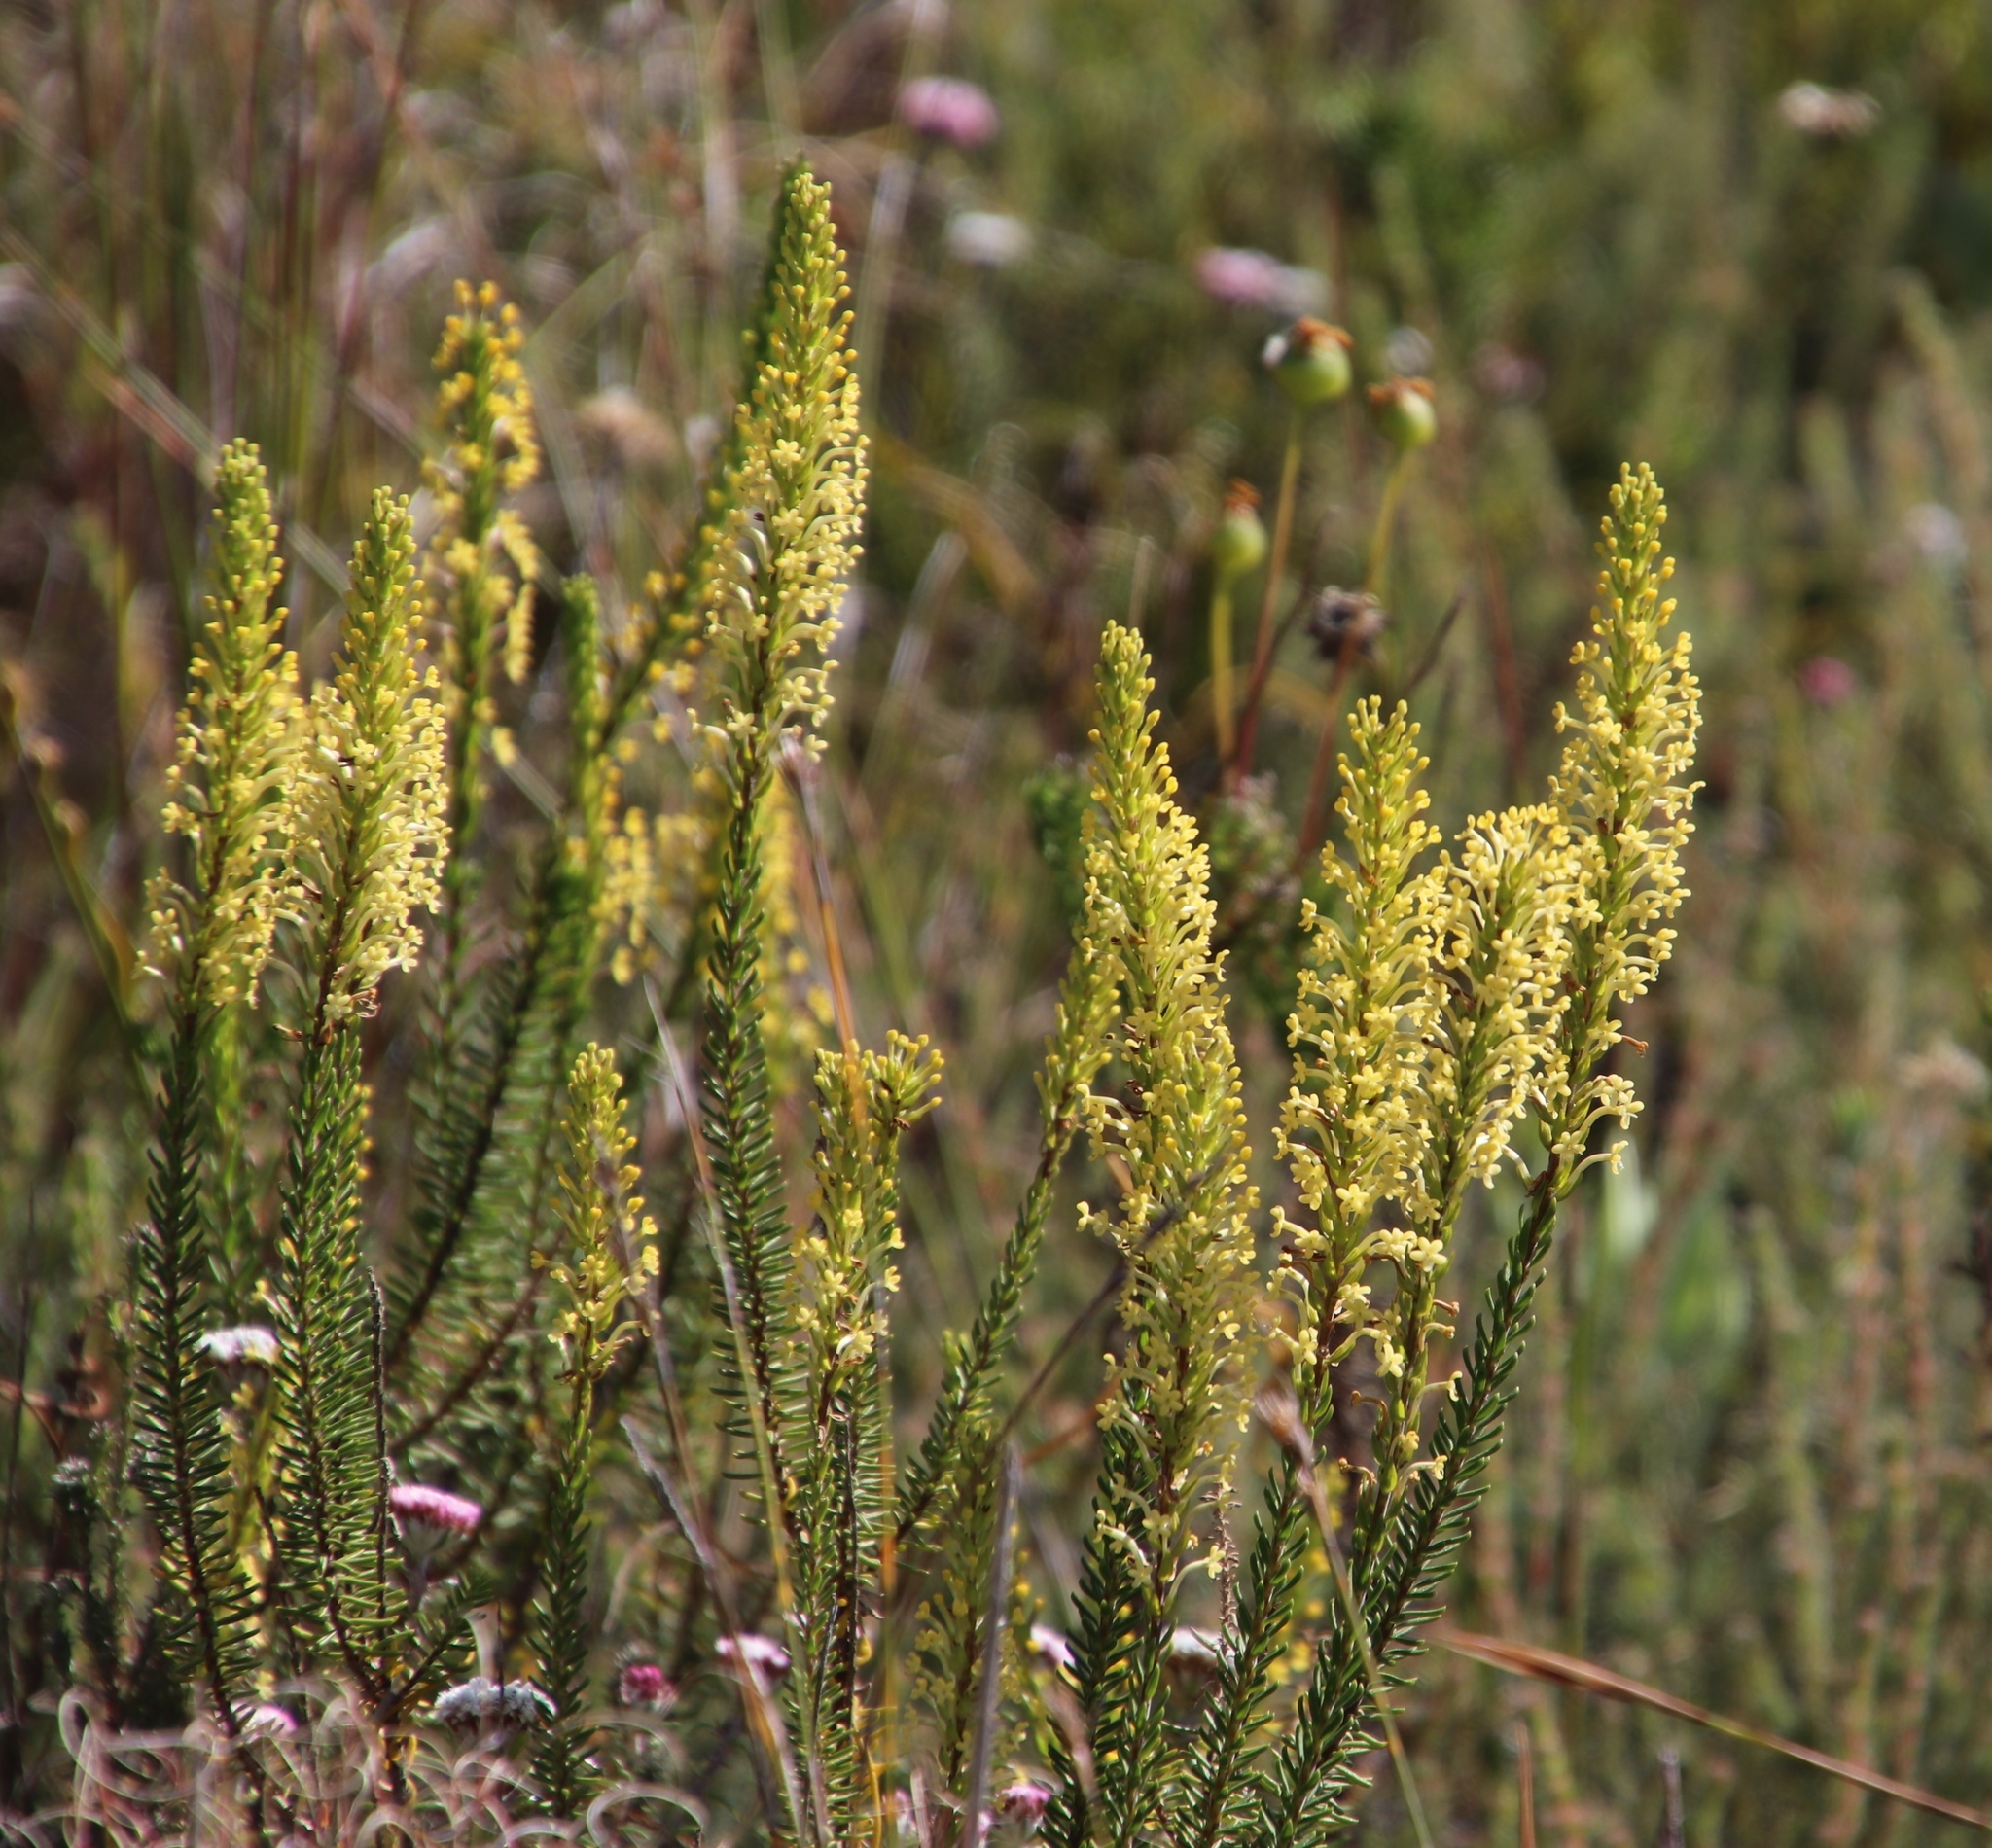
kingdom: Plantae
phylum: Tracheophyta
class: Magnoliopsida
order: Lamiales
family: Scrophulariaceae
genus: Microdon
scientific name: Microdon dubius
